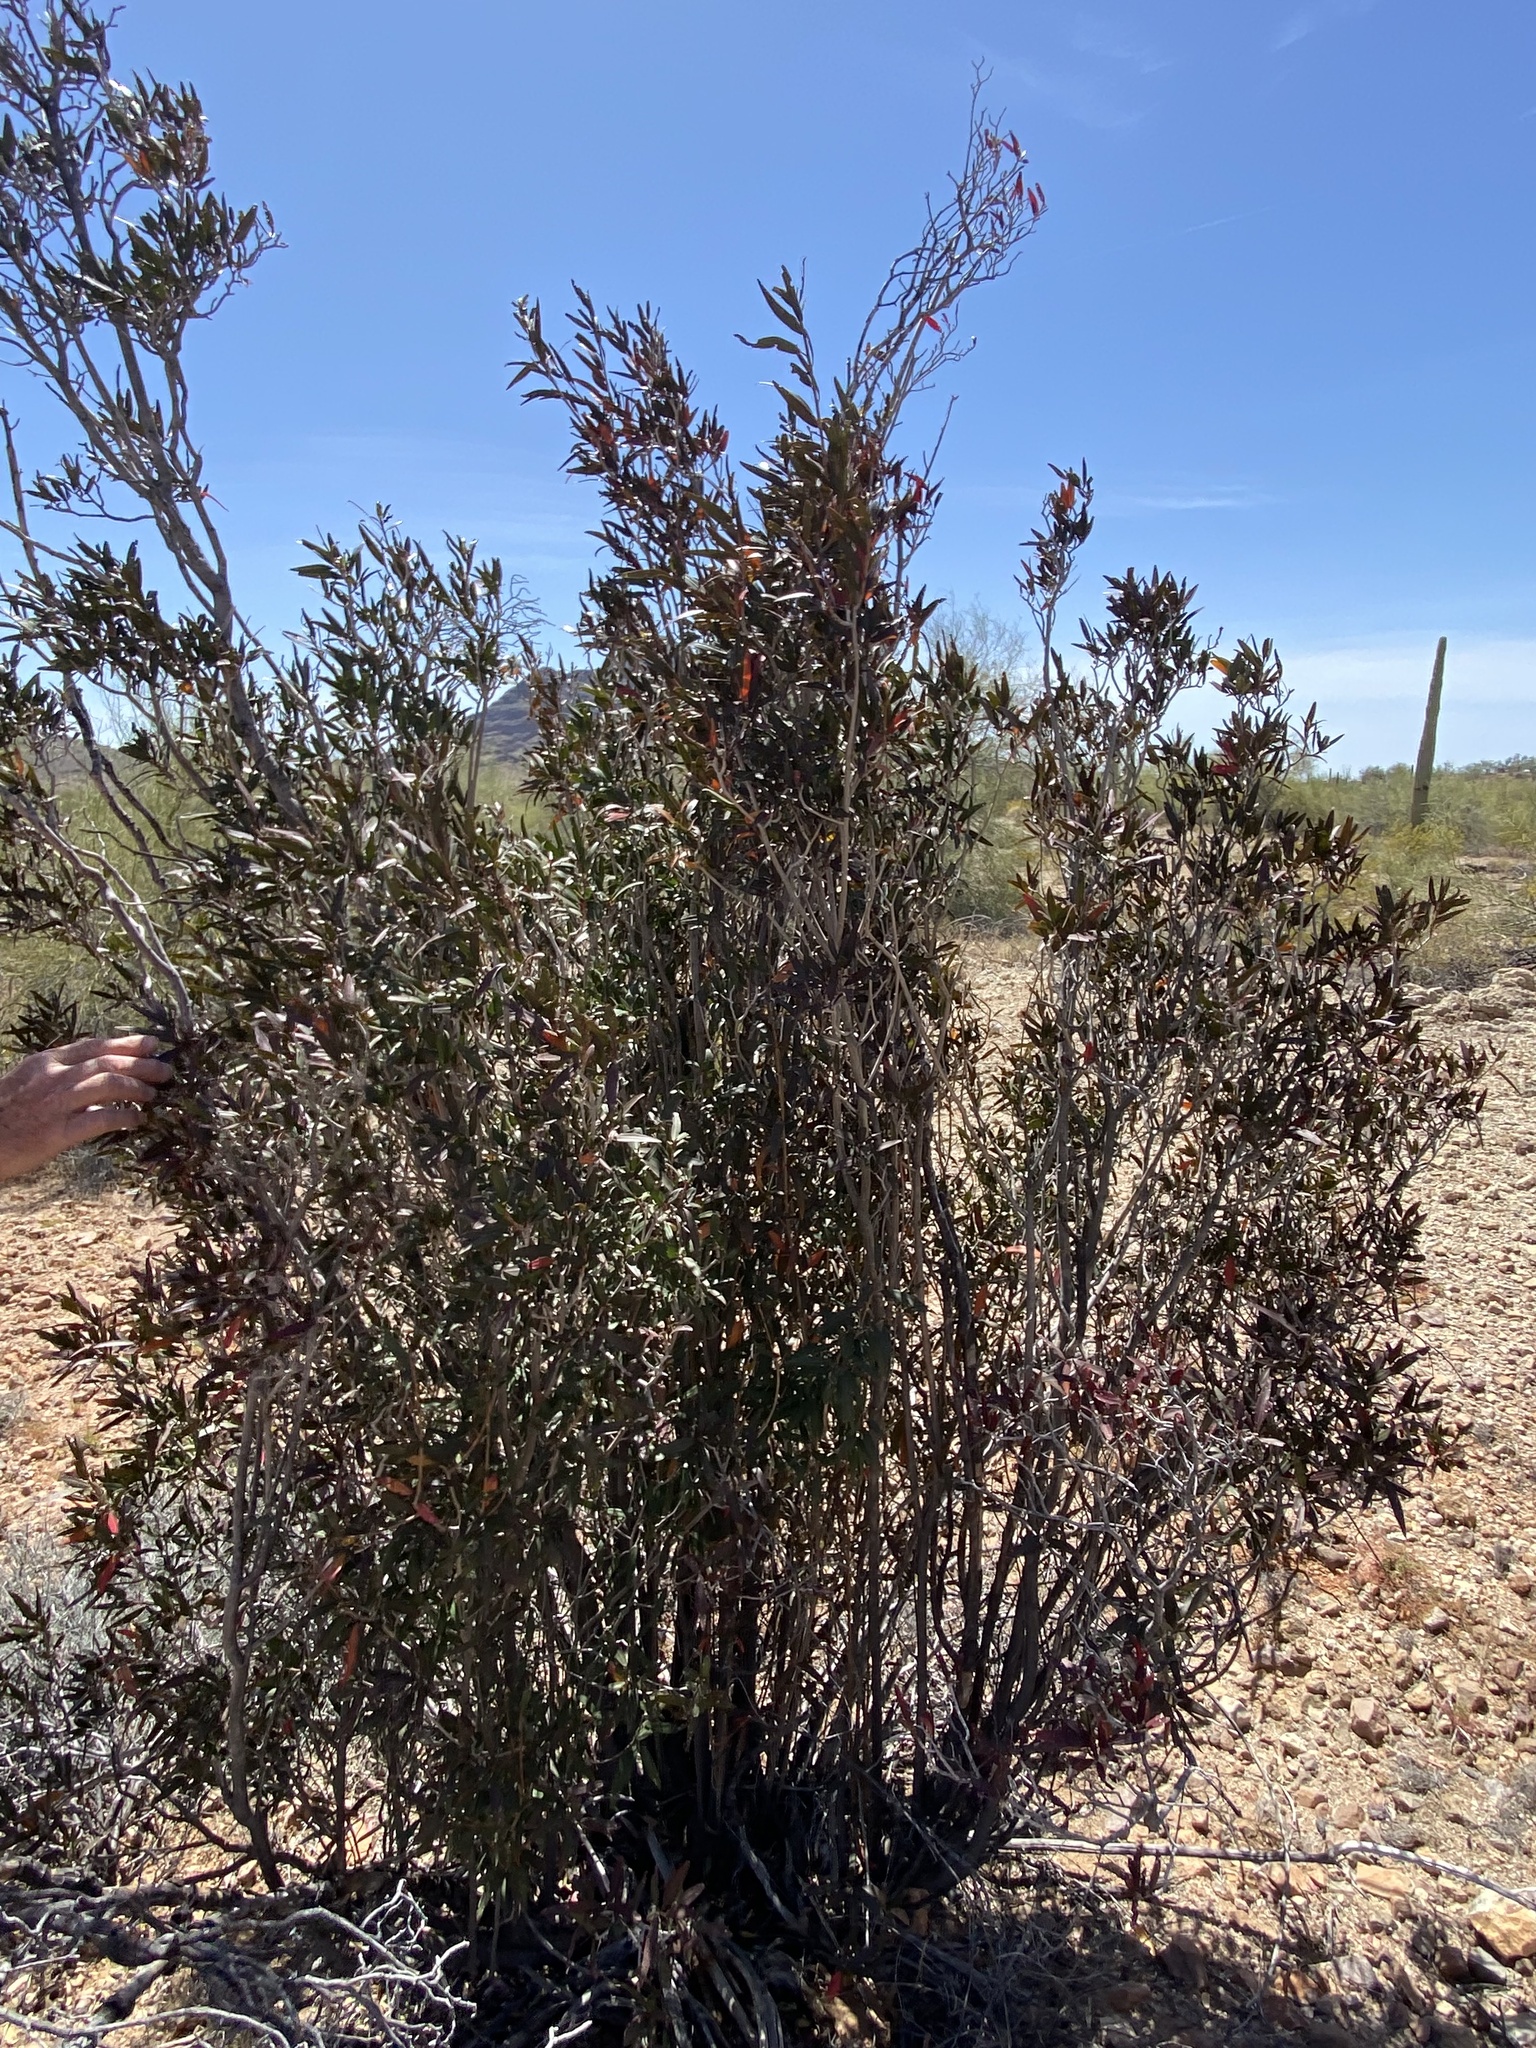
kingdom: Plantae
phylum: Tracheophyta
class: Magnoliopsida
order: Malpighiales
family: Euphorbiaceae
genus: Pleradenophora
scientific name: Pleradenophora bilocularis
